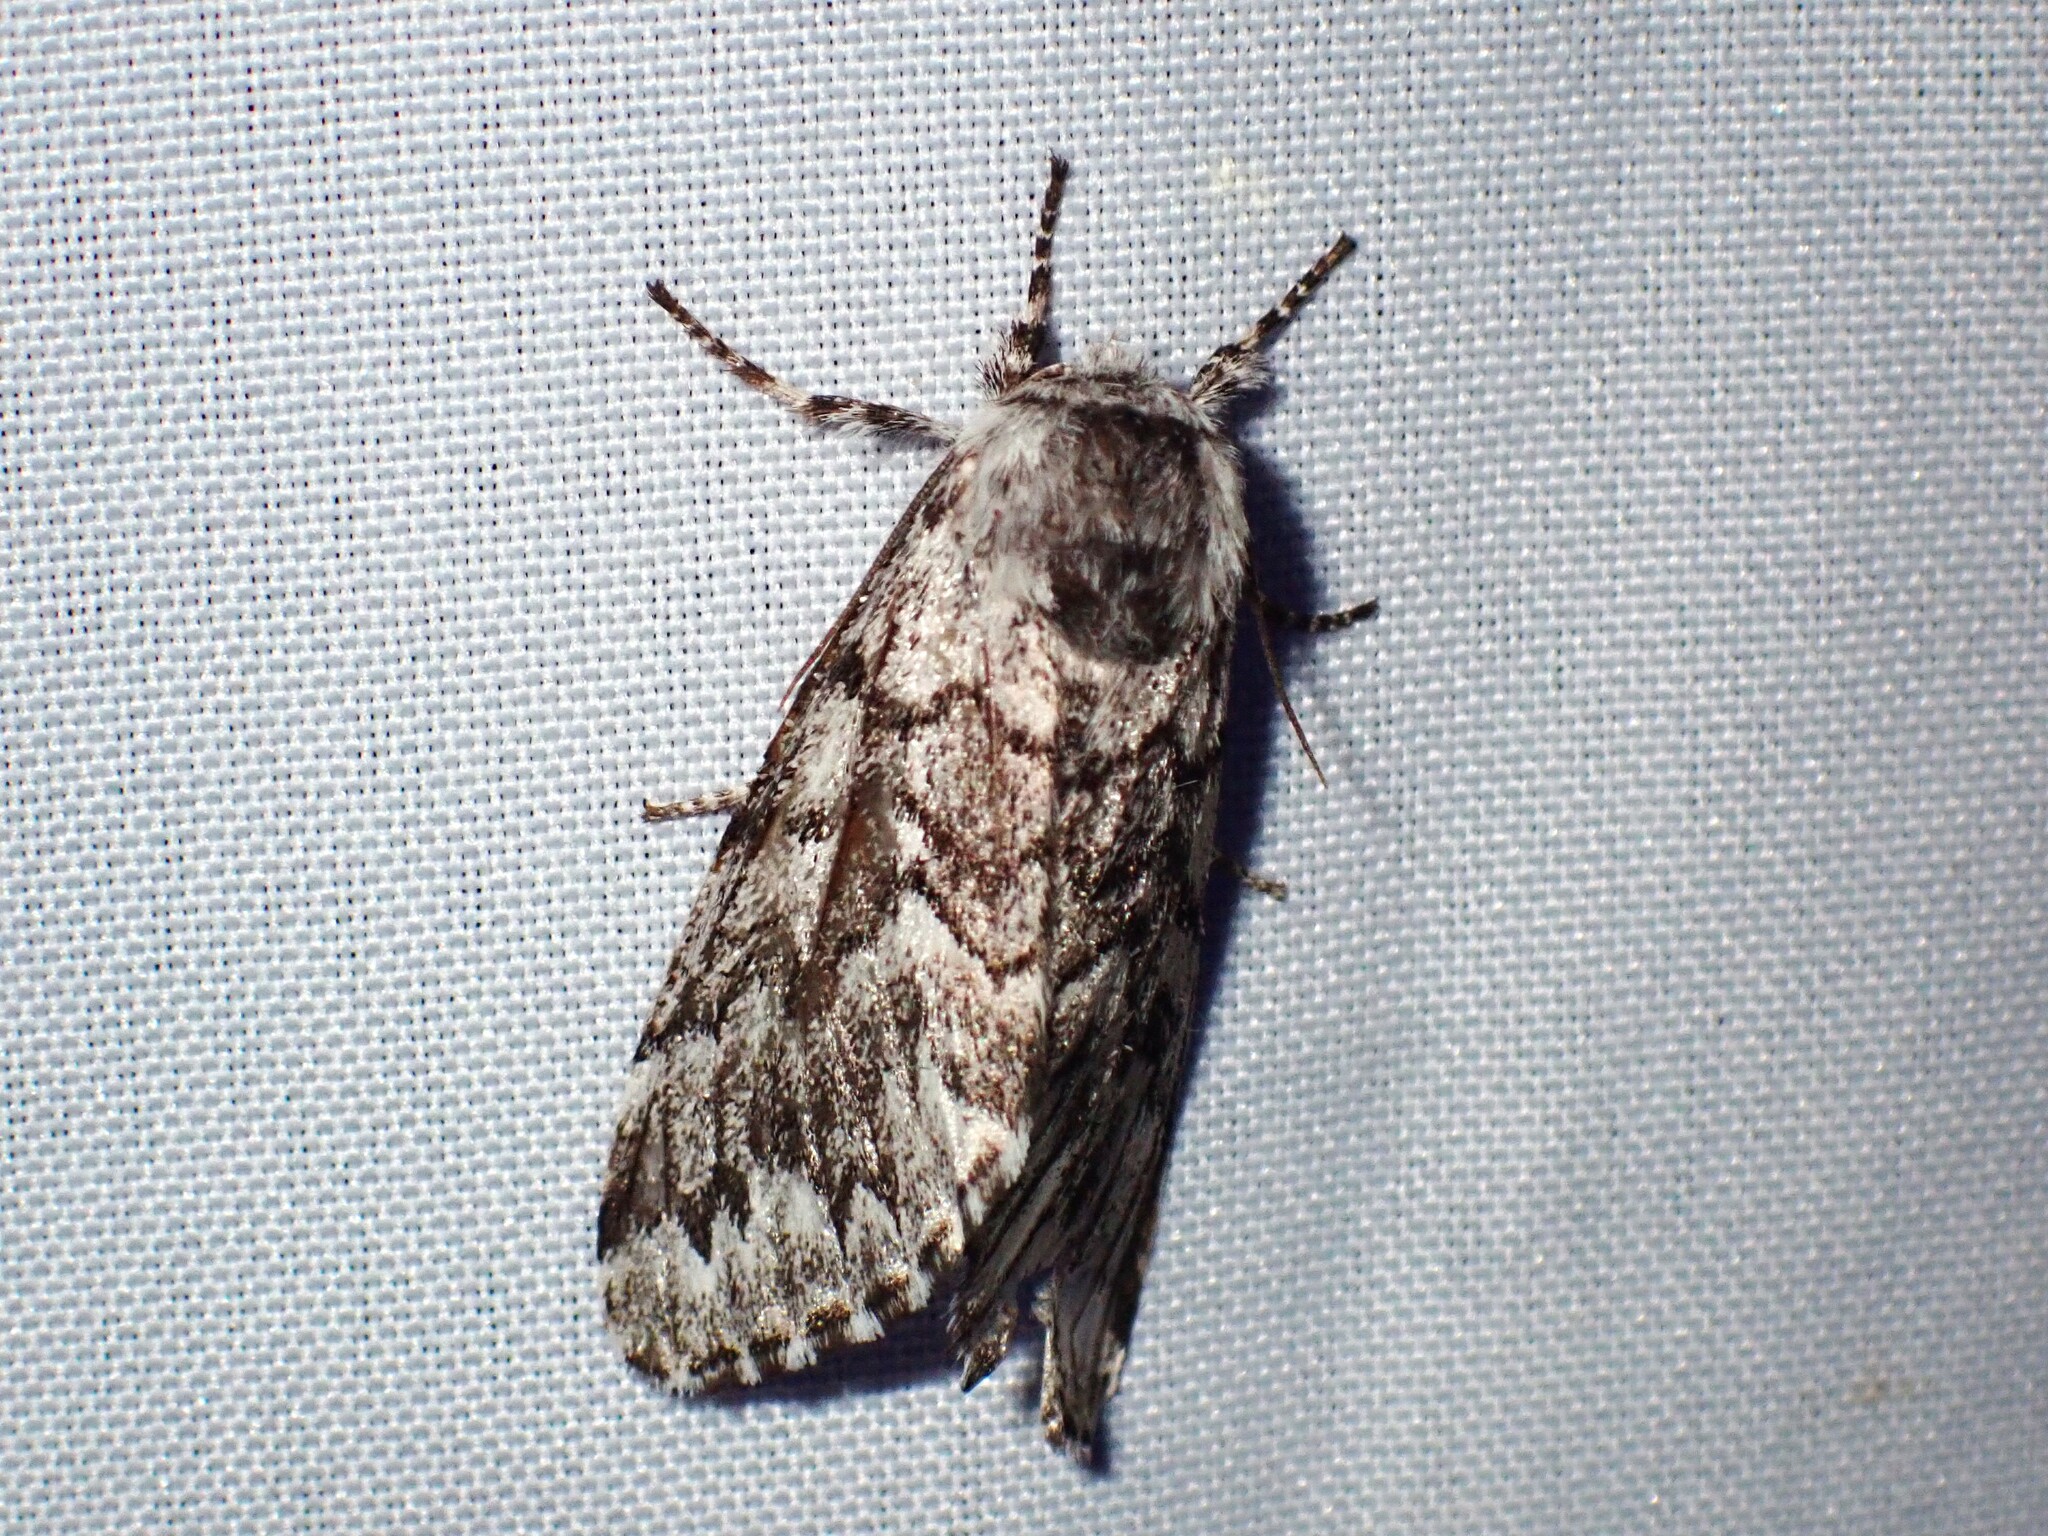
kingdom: Animalia
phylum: Arthropoda
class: Insecta
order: Lepidoptera
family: Noctuidae
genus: Panthea
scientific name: Panthea virginarius
